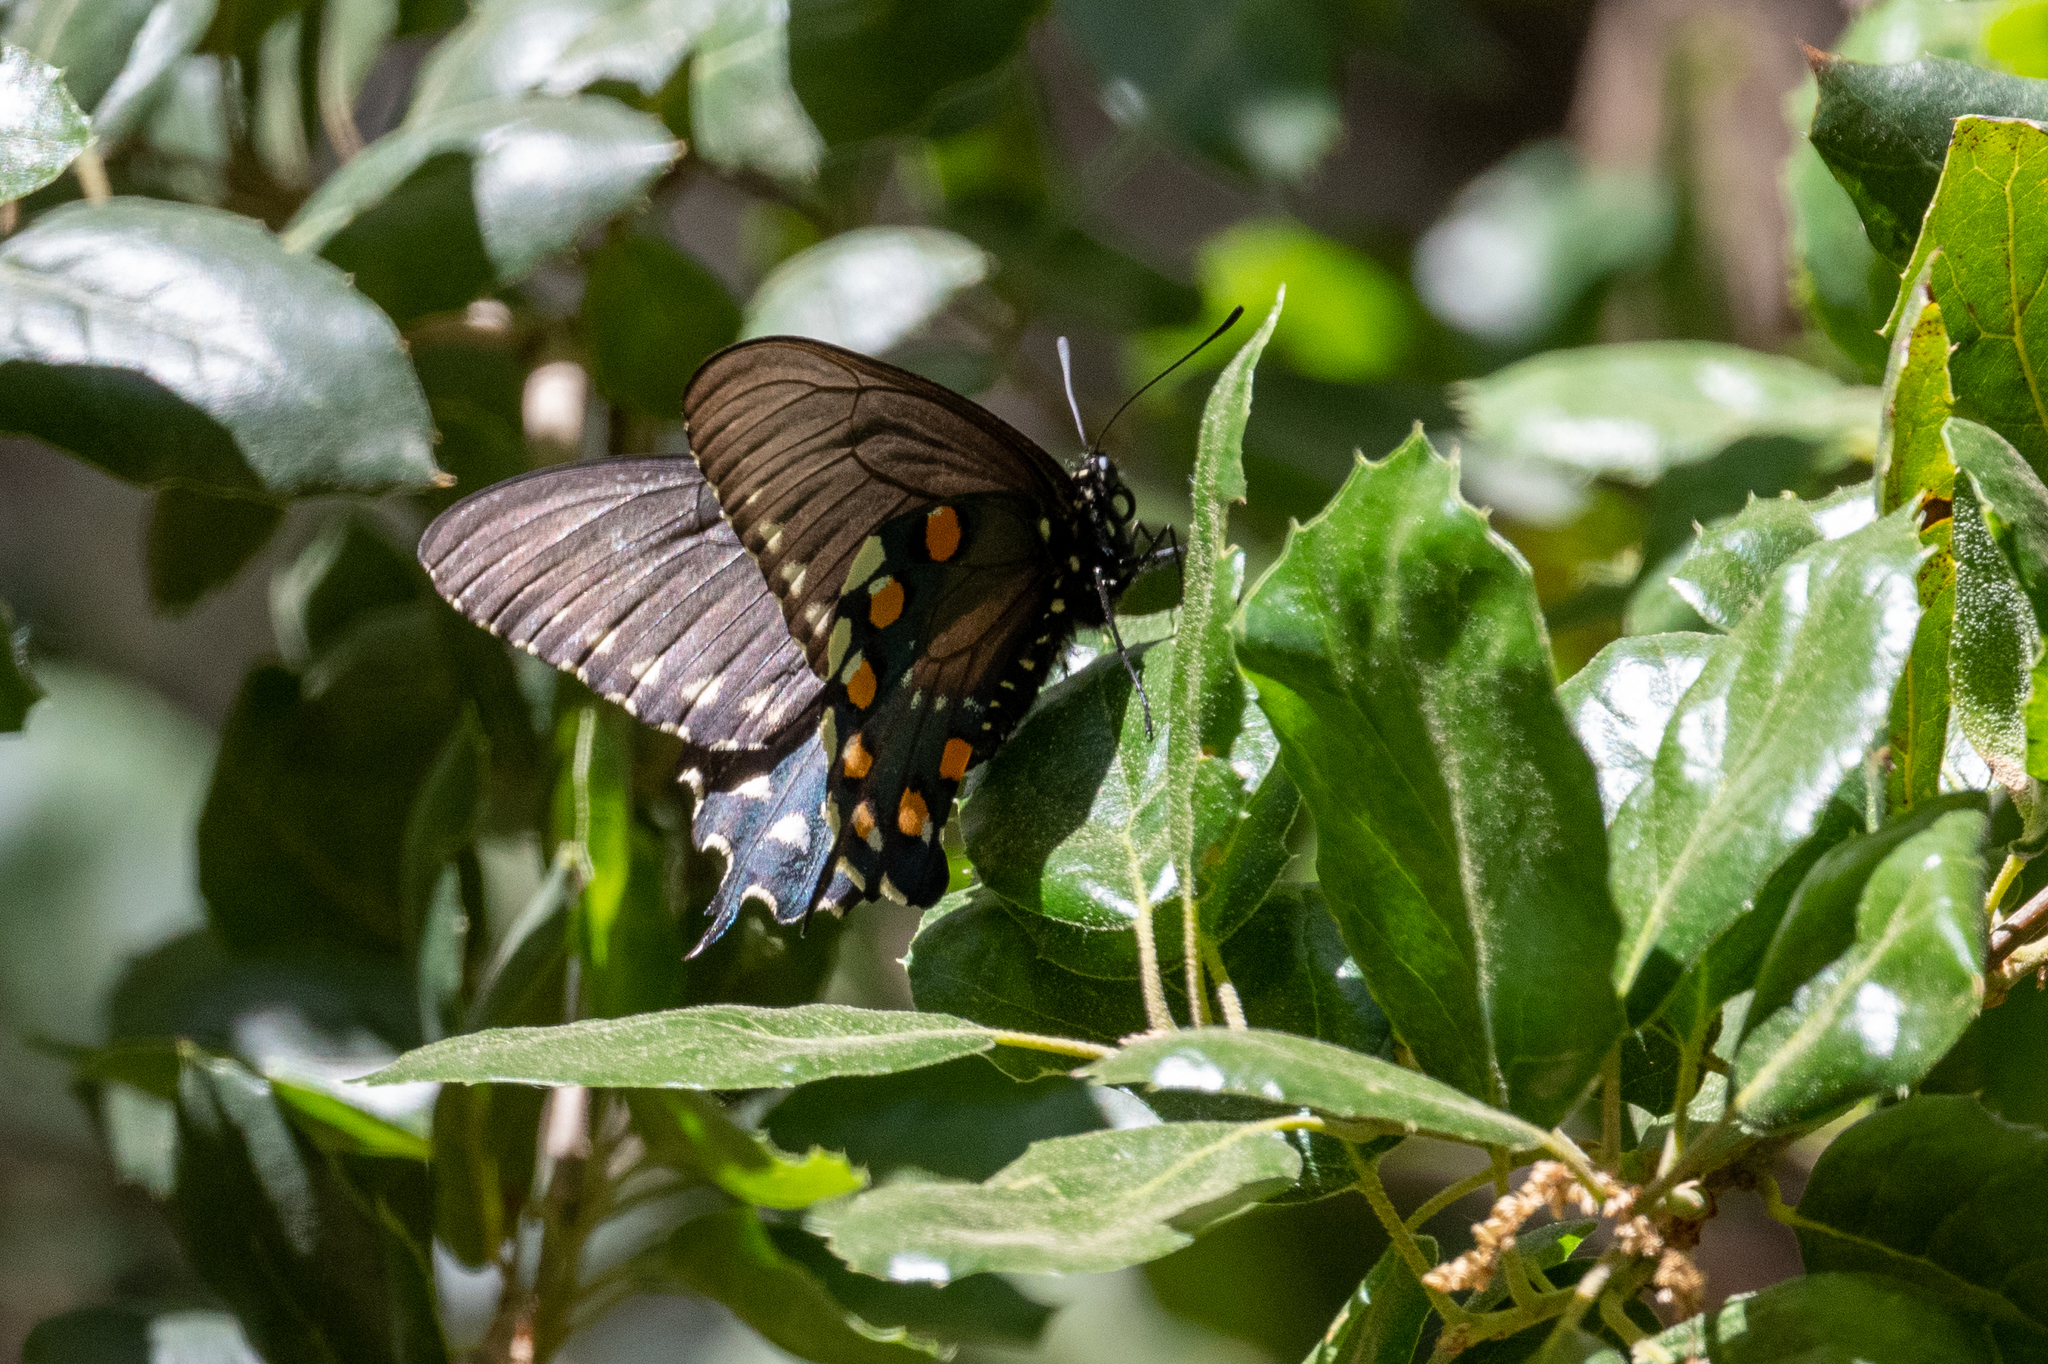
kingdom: Animalia
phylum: Arthropoda
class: Insecta
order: Lepidoptera
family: Papilionidae
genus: Battus
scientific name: Battus philenor
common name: Pipevine swallowtail
